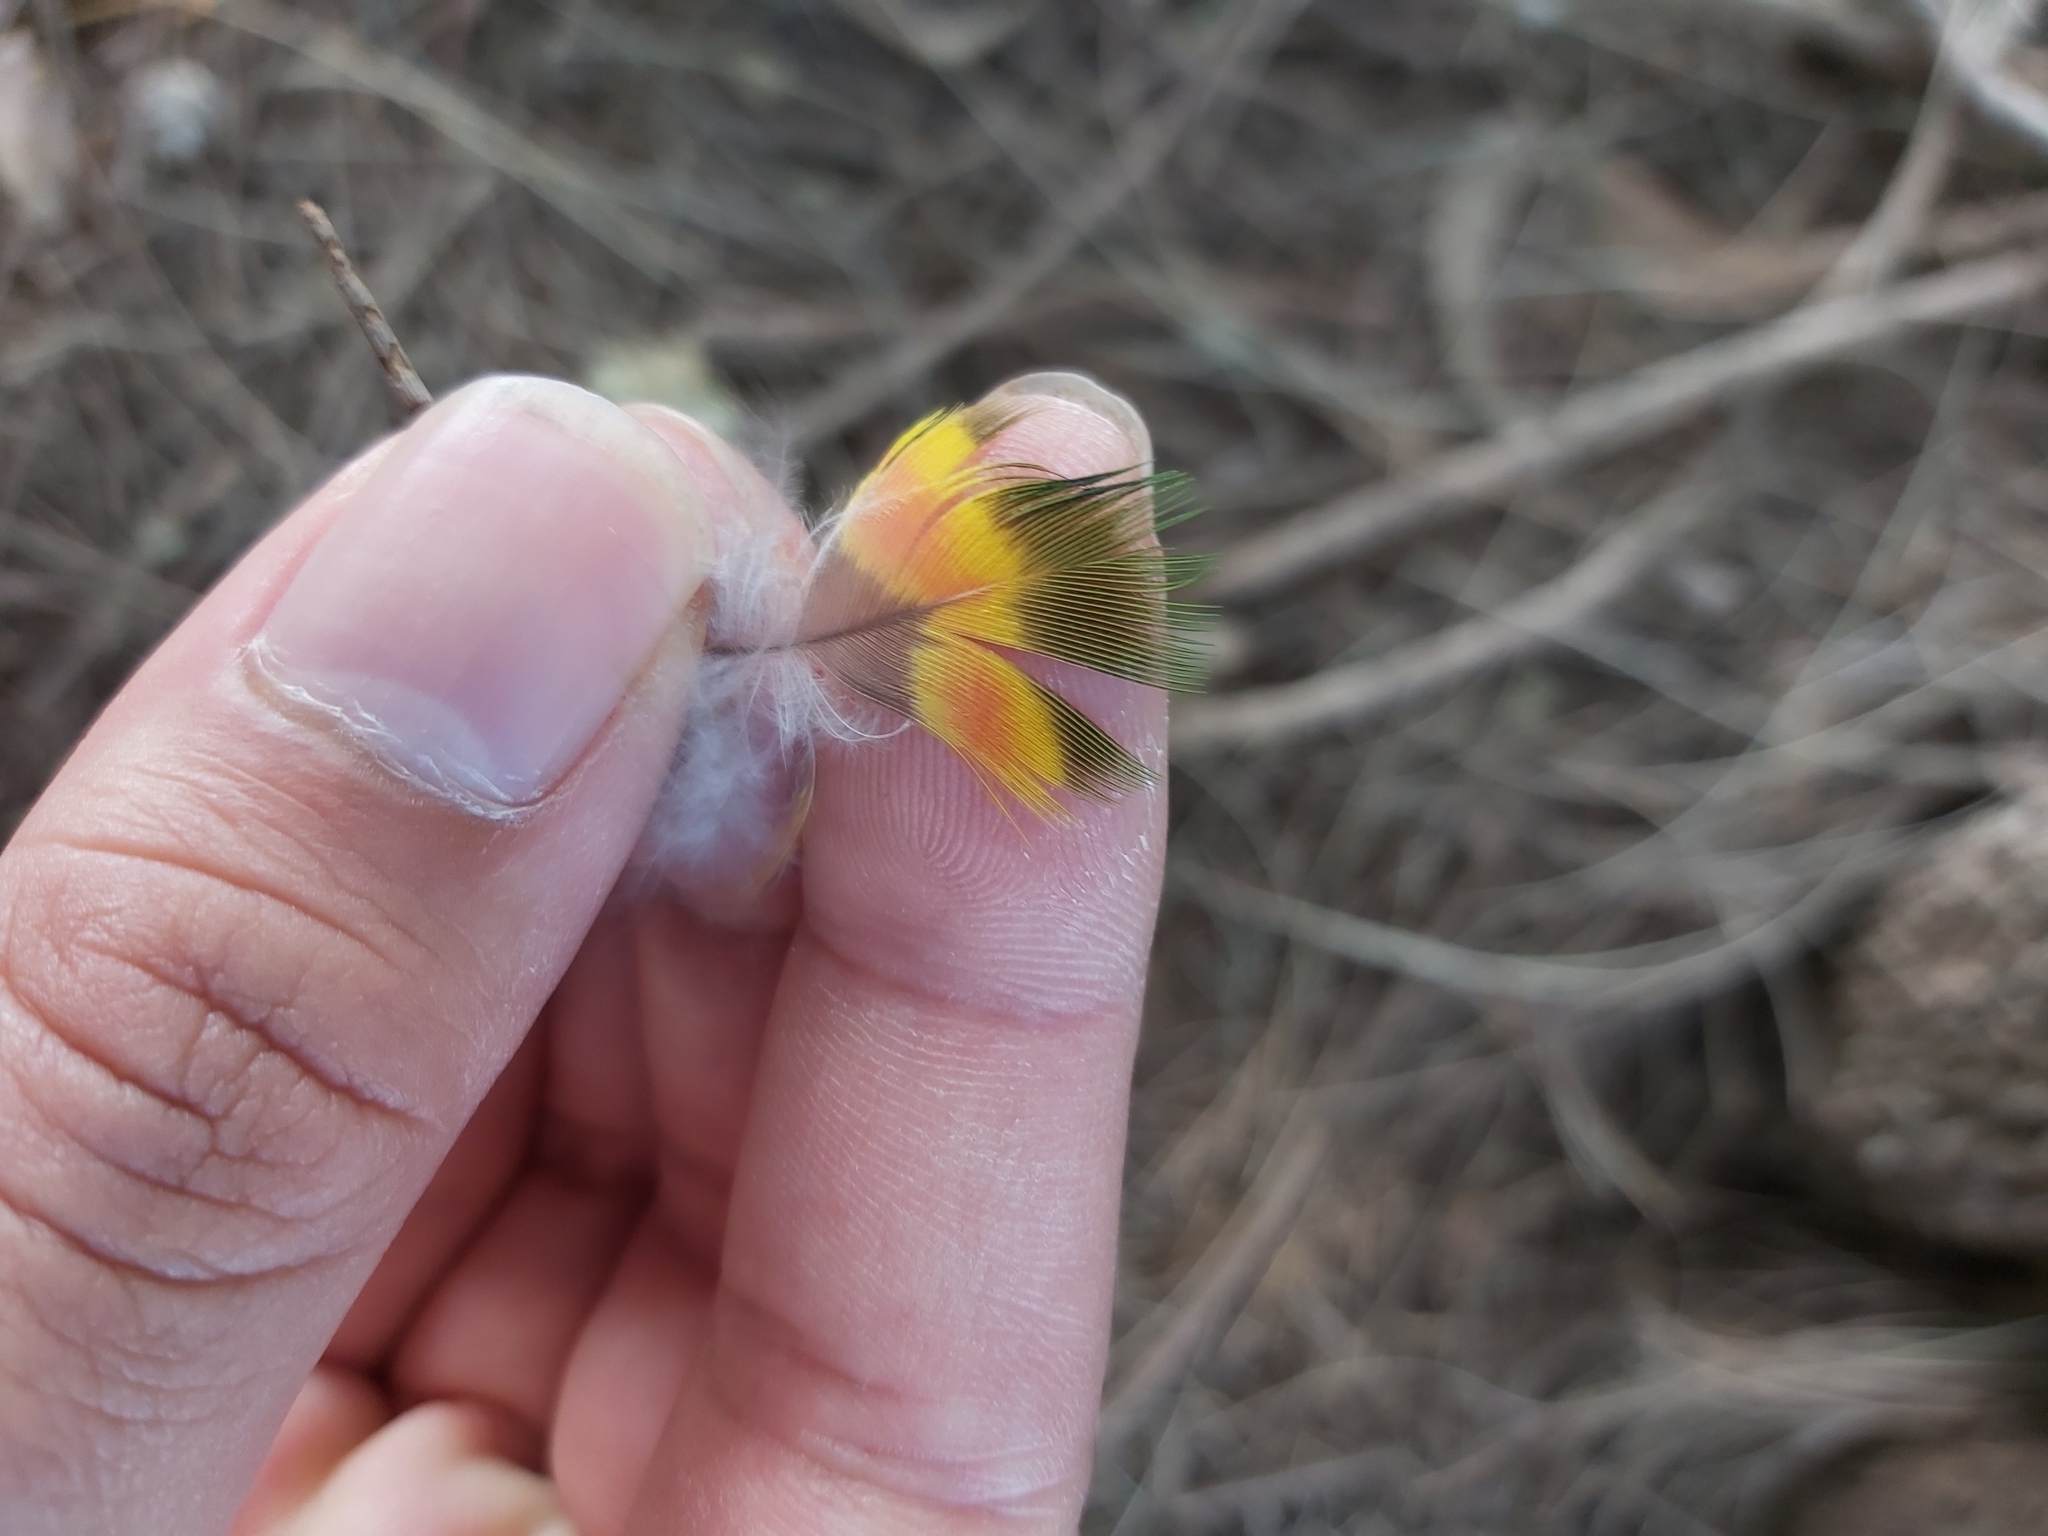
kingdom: Animalia
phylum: Chordata
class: Aves
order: Psittaciformes
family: Psittacidae
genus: Trichoglossus
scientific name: Trichoglossus haematodus
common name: Coconut lorikeet
